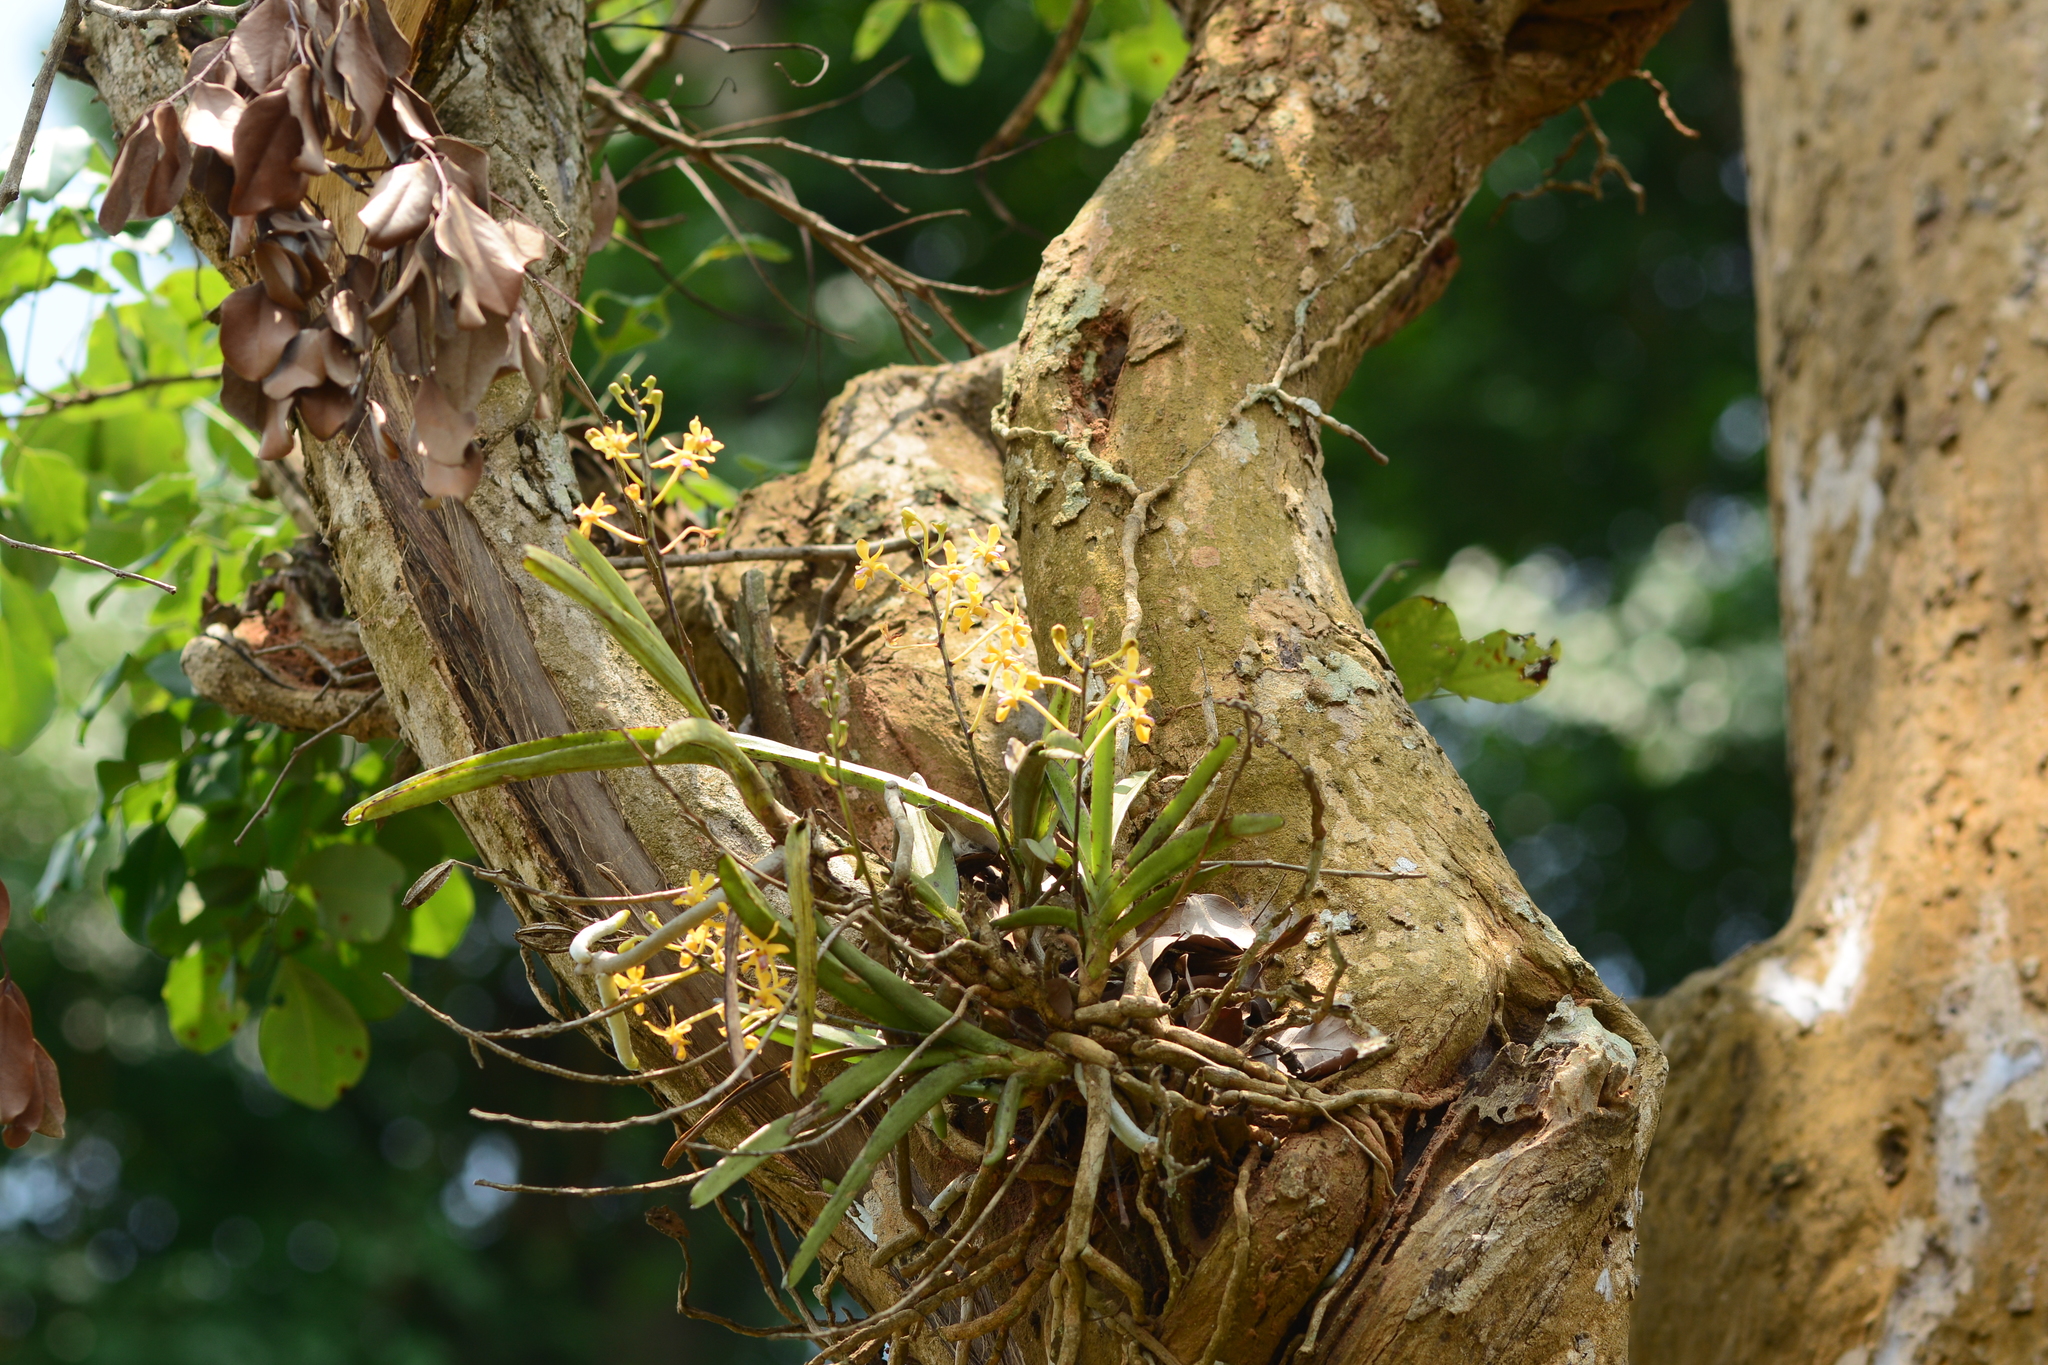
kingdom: Plantae
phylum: Tracheophyta
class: Liliopsida
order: Asparagales
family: Orchidaceae
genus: Vanda
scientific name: Vanda testacea
